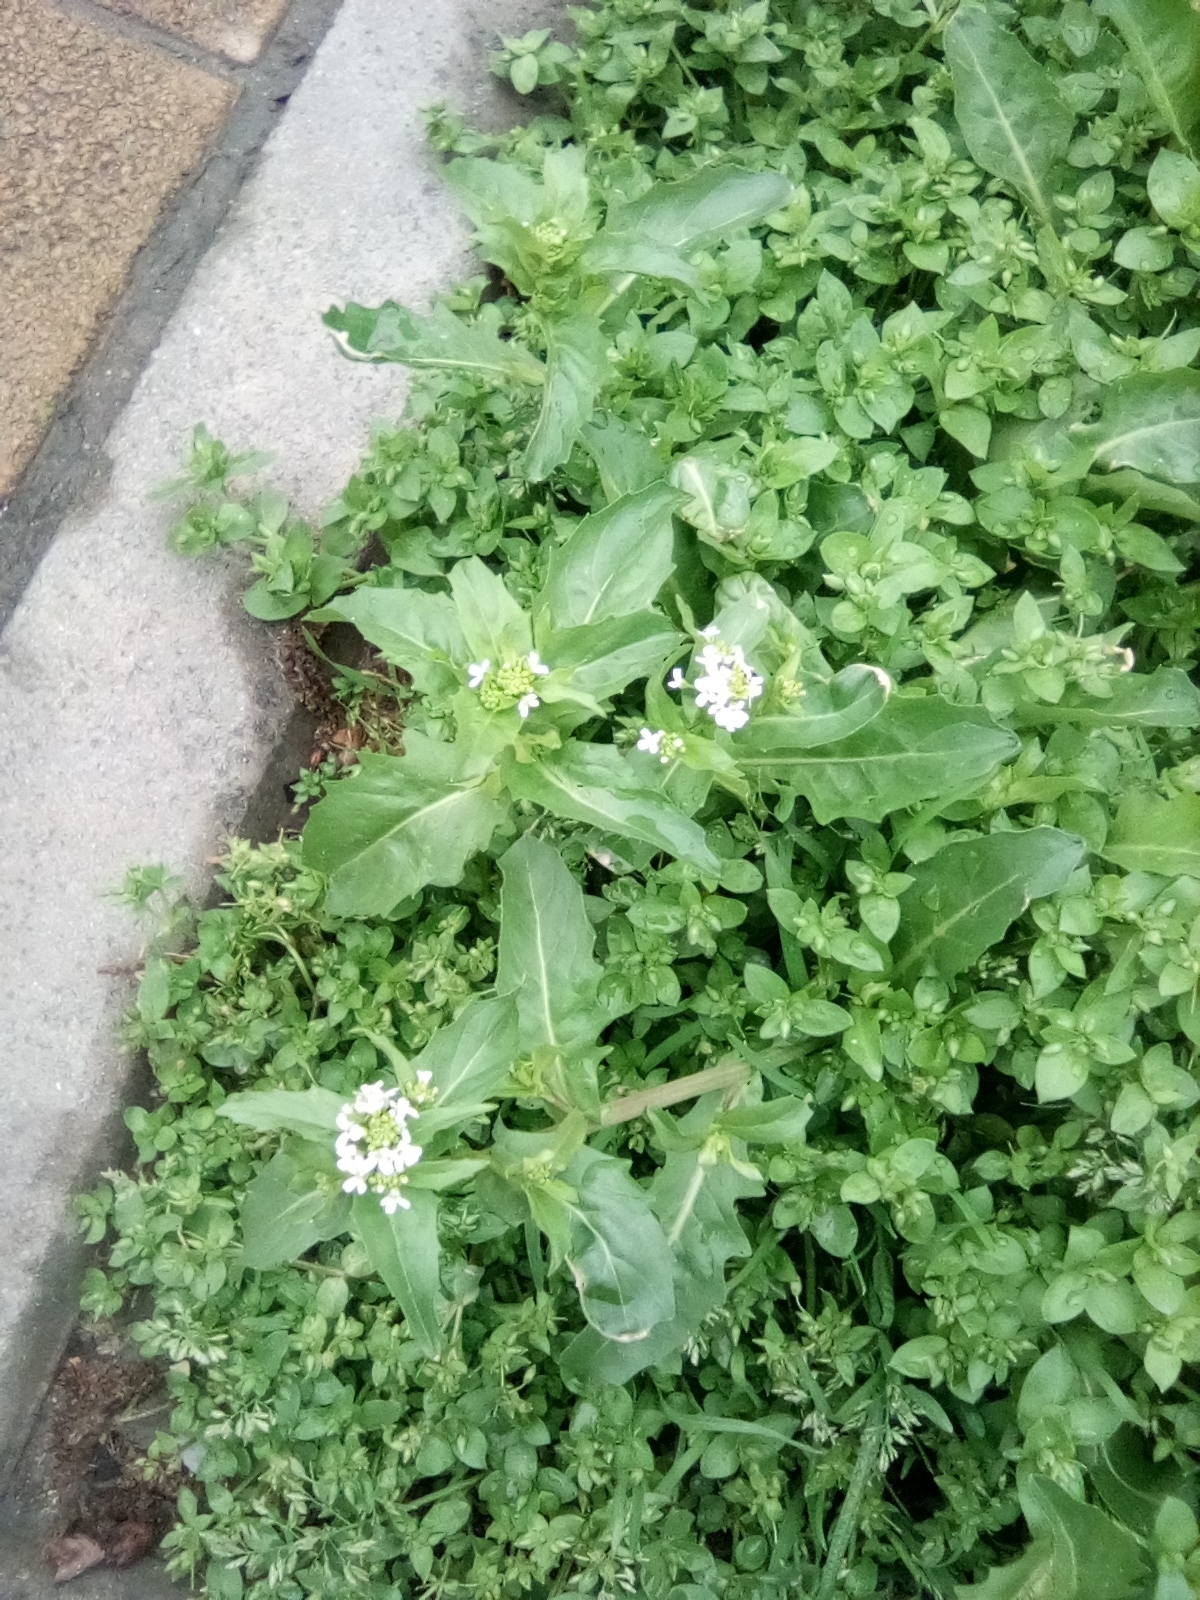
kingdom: Plantae
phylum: Tracheophyta
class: Magnoliopsida
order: Brassicales
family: Brassicaceae
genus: Thlaspi
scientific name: Thlaspi arvense
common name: Field pennycress
